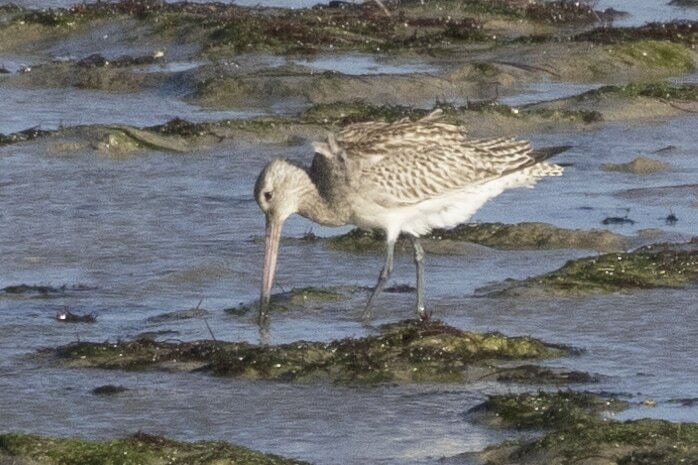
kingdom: Animalia
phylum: Chordata
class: Aves
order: Charadriiformes
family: Scolopacidae
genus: Limosa
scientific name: Limosa lapponica
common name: Bar-tailed godwit
